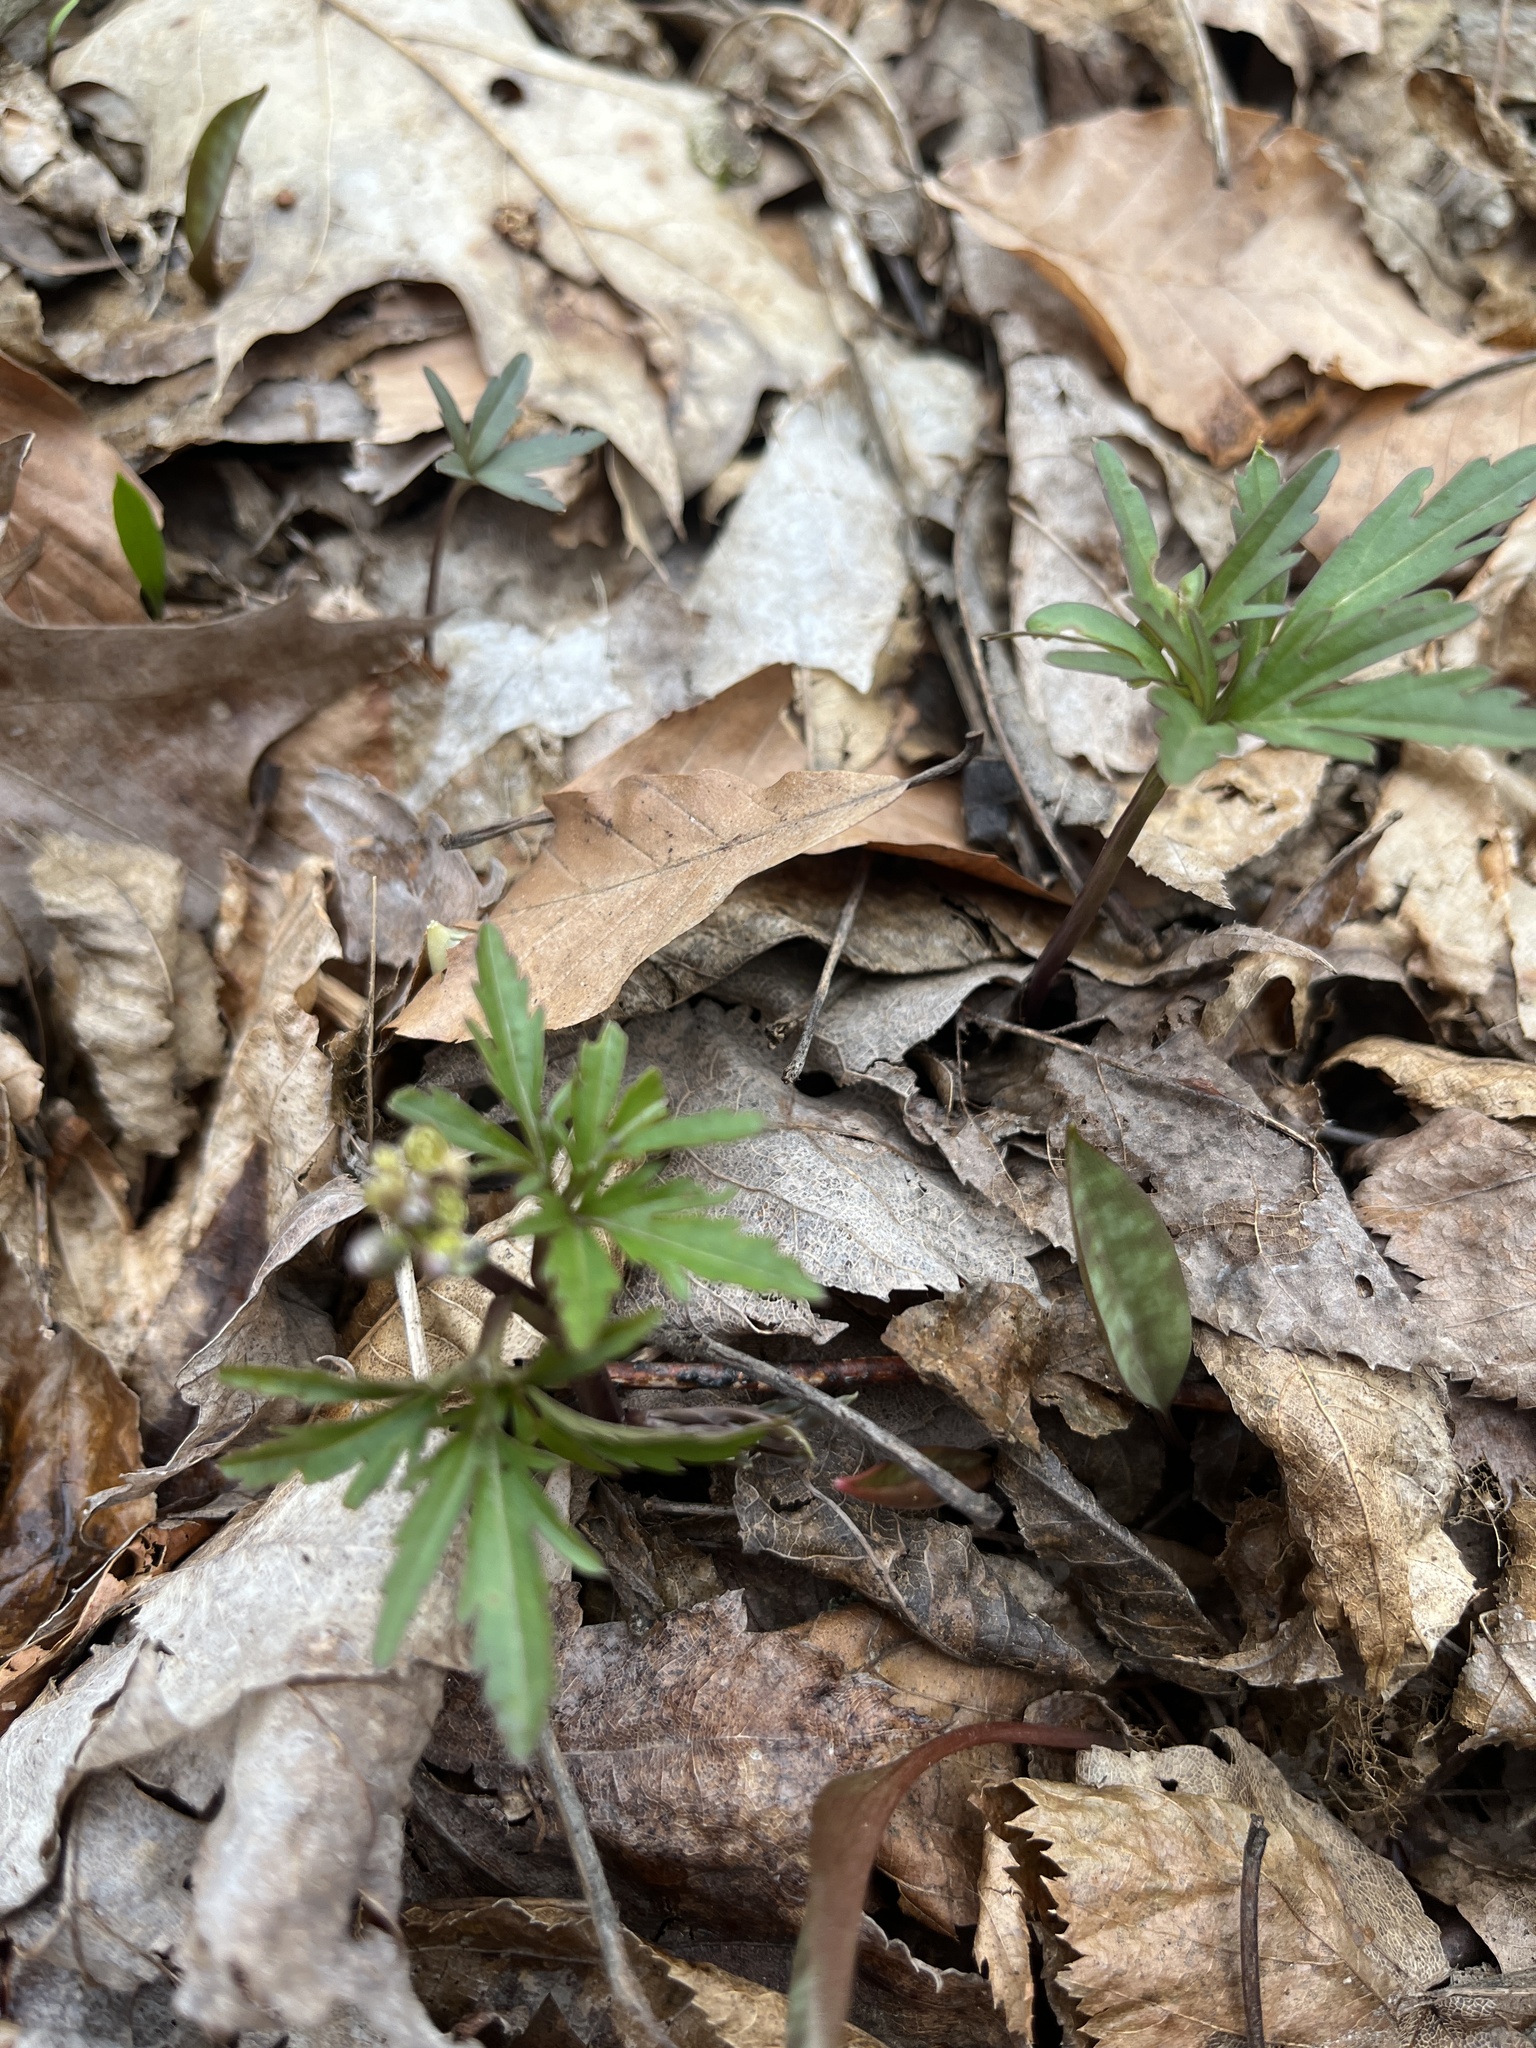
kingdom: Plantae
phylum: Tracheophyta
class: Magnoliopsida
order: Brassicales
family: Brassicaceae
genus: Cardamine
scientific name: Cardamine concatenata
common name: Cut-leaf toothcup
